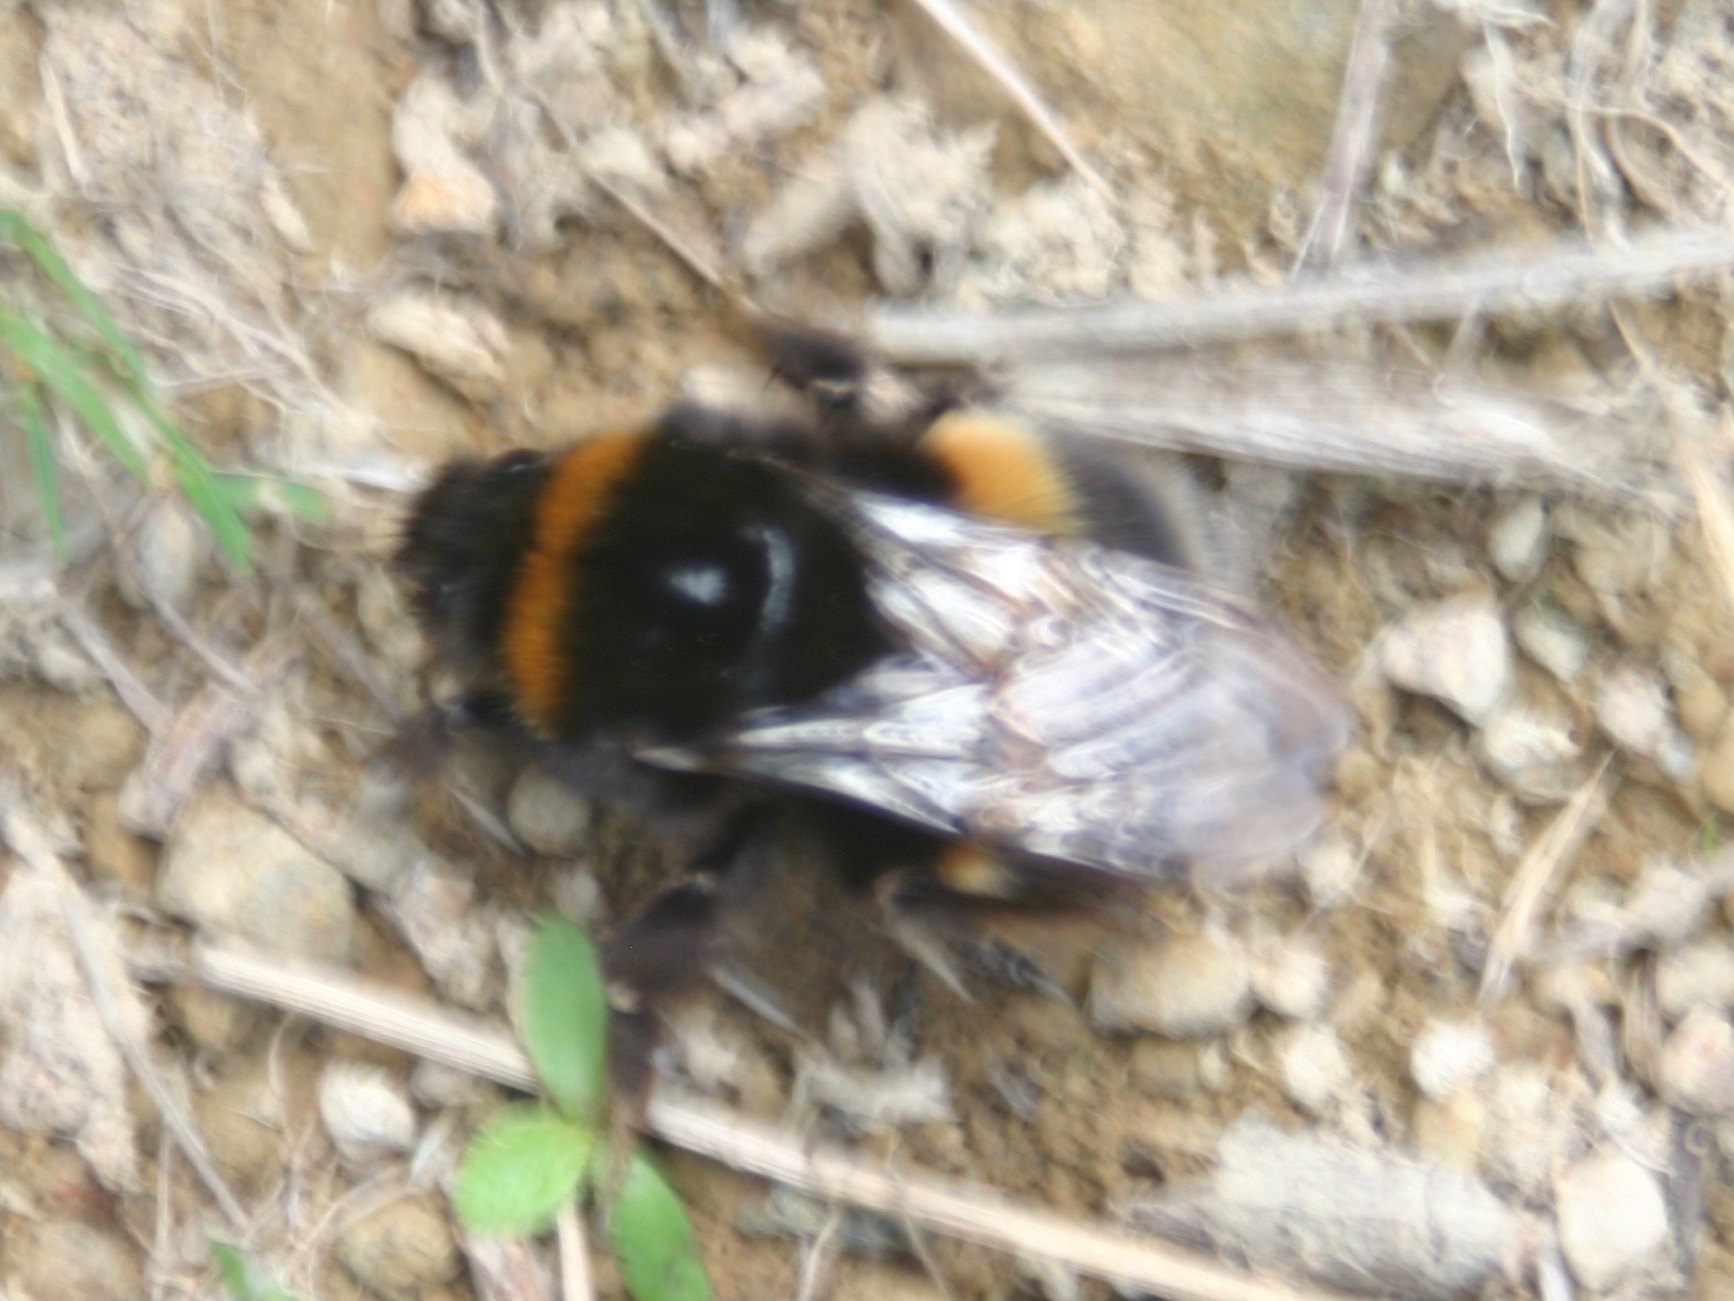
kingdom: Animalia
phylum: Arthropoda
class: Insecta
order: Hymenoptera
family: Apidae
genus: Bombus
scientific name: Bombus terrestris
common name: Buff-tailed bumblebee
